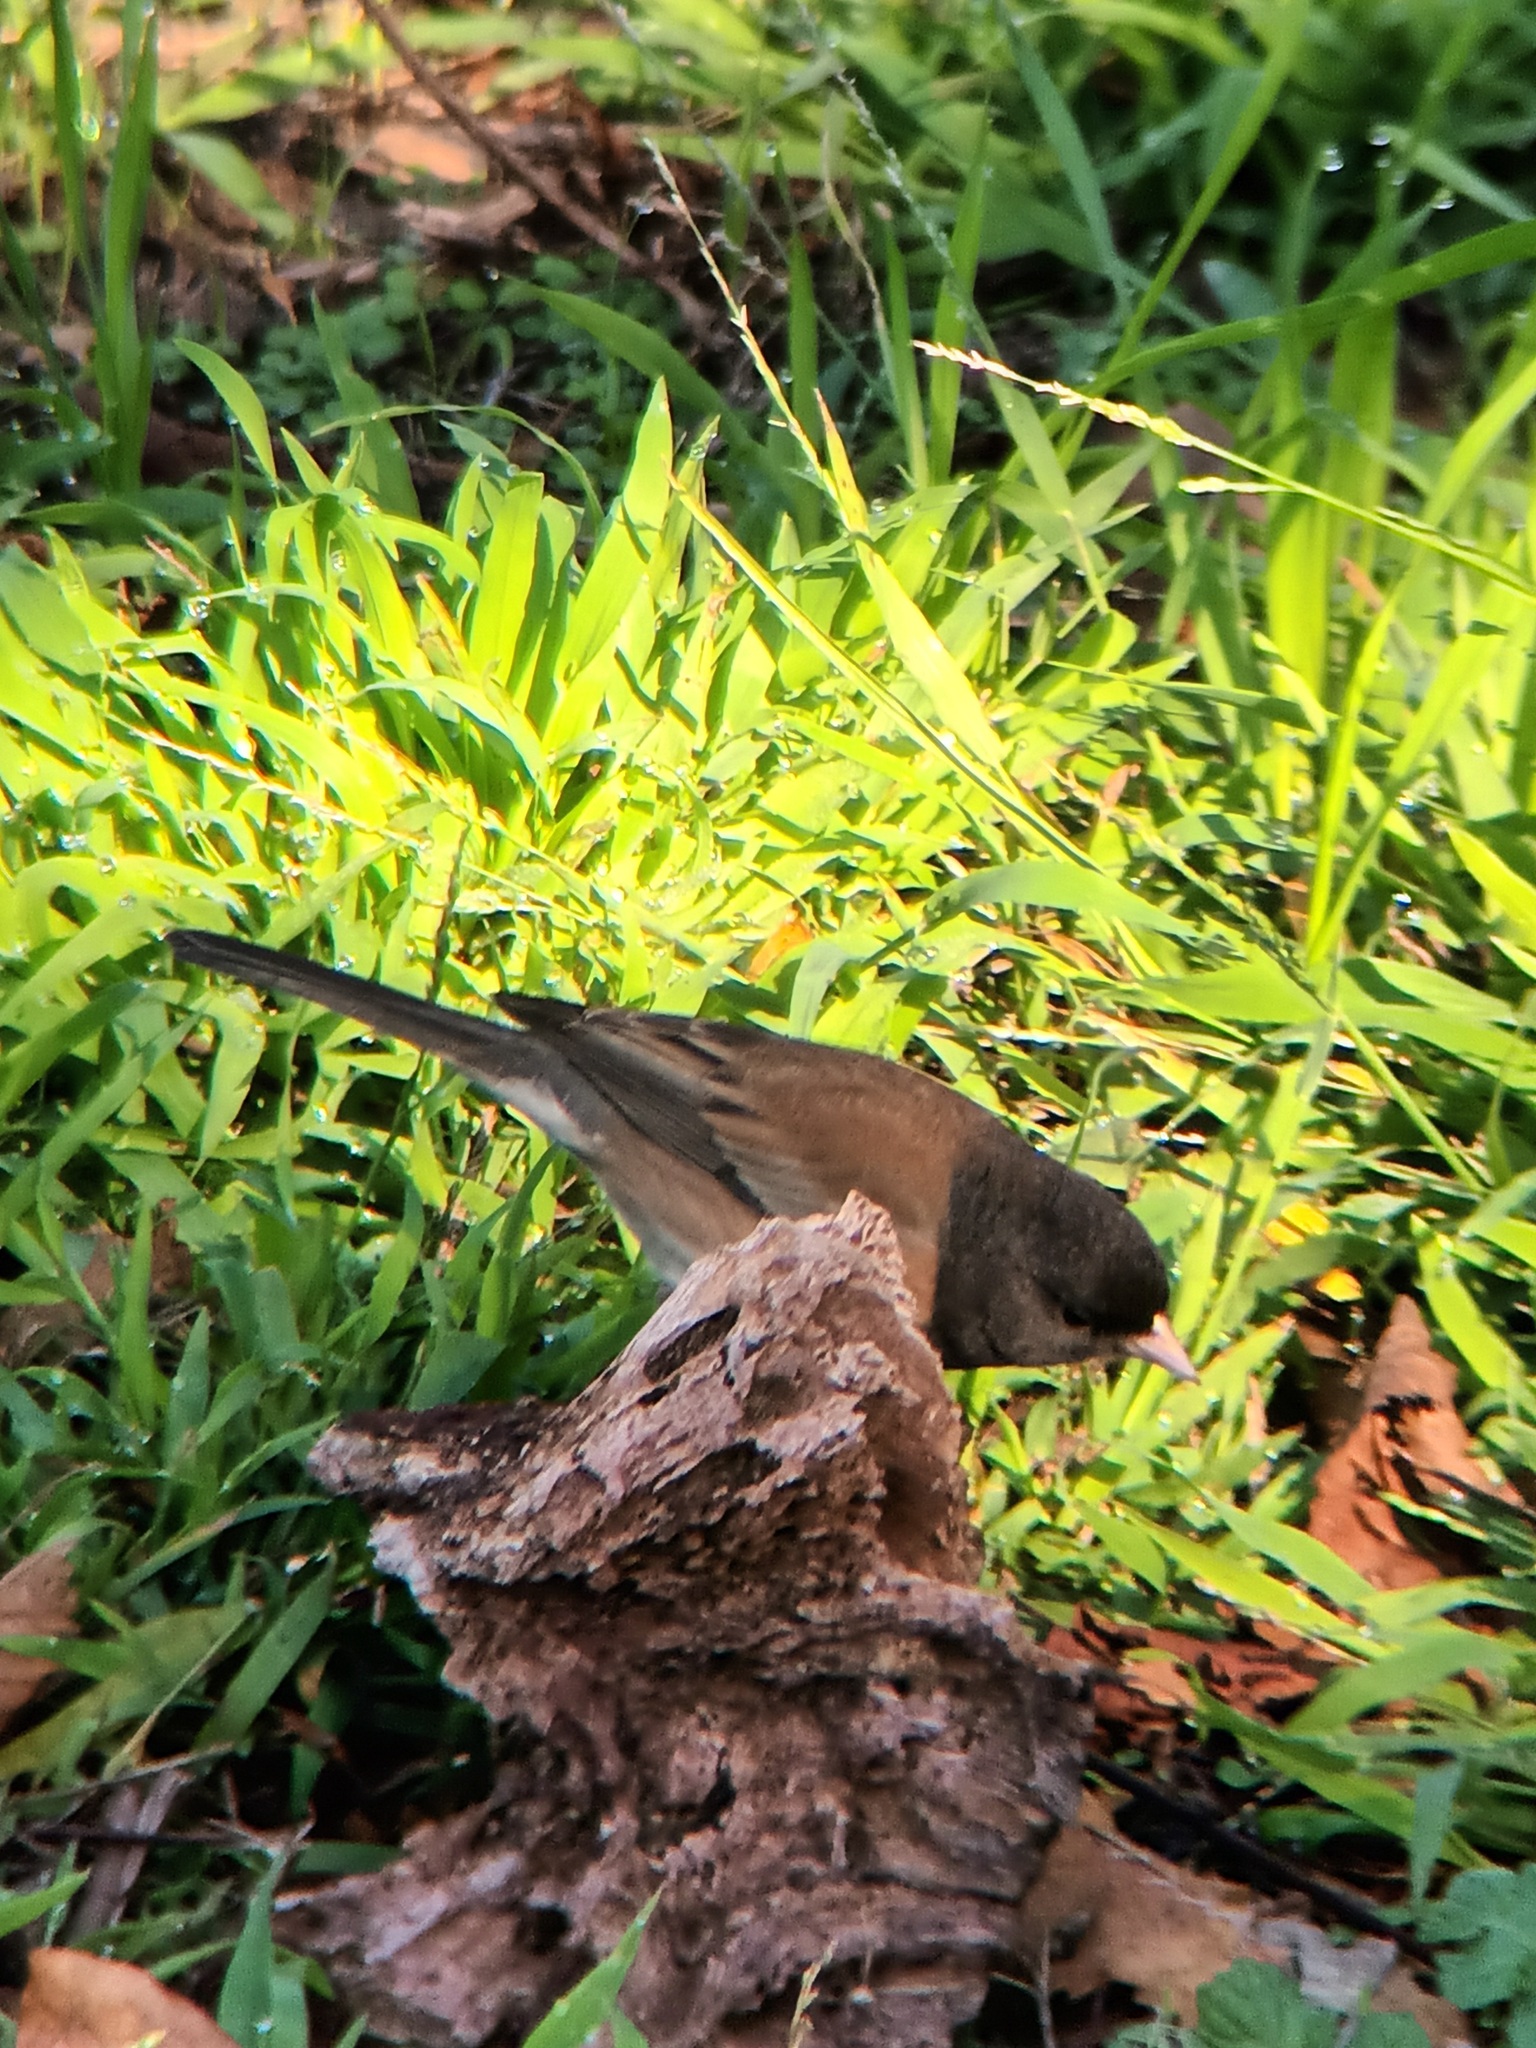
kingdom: Animalia
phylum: Chordata
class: Aves
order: Passeriformes
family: Passerellidae
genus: Junco
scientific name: Junco hyemalis
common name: Dark-eyed junco
